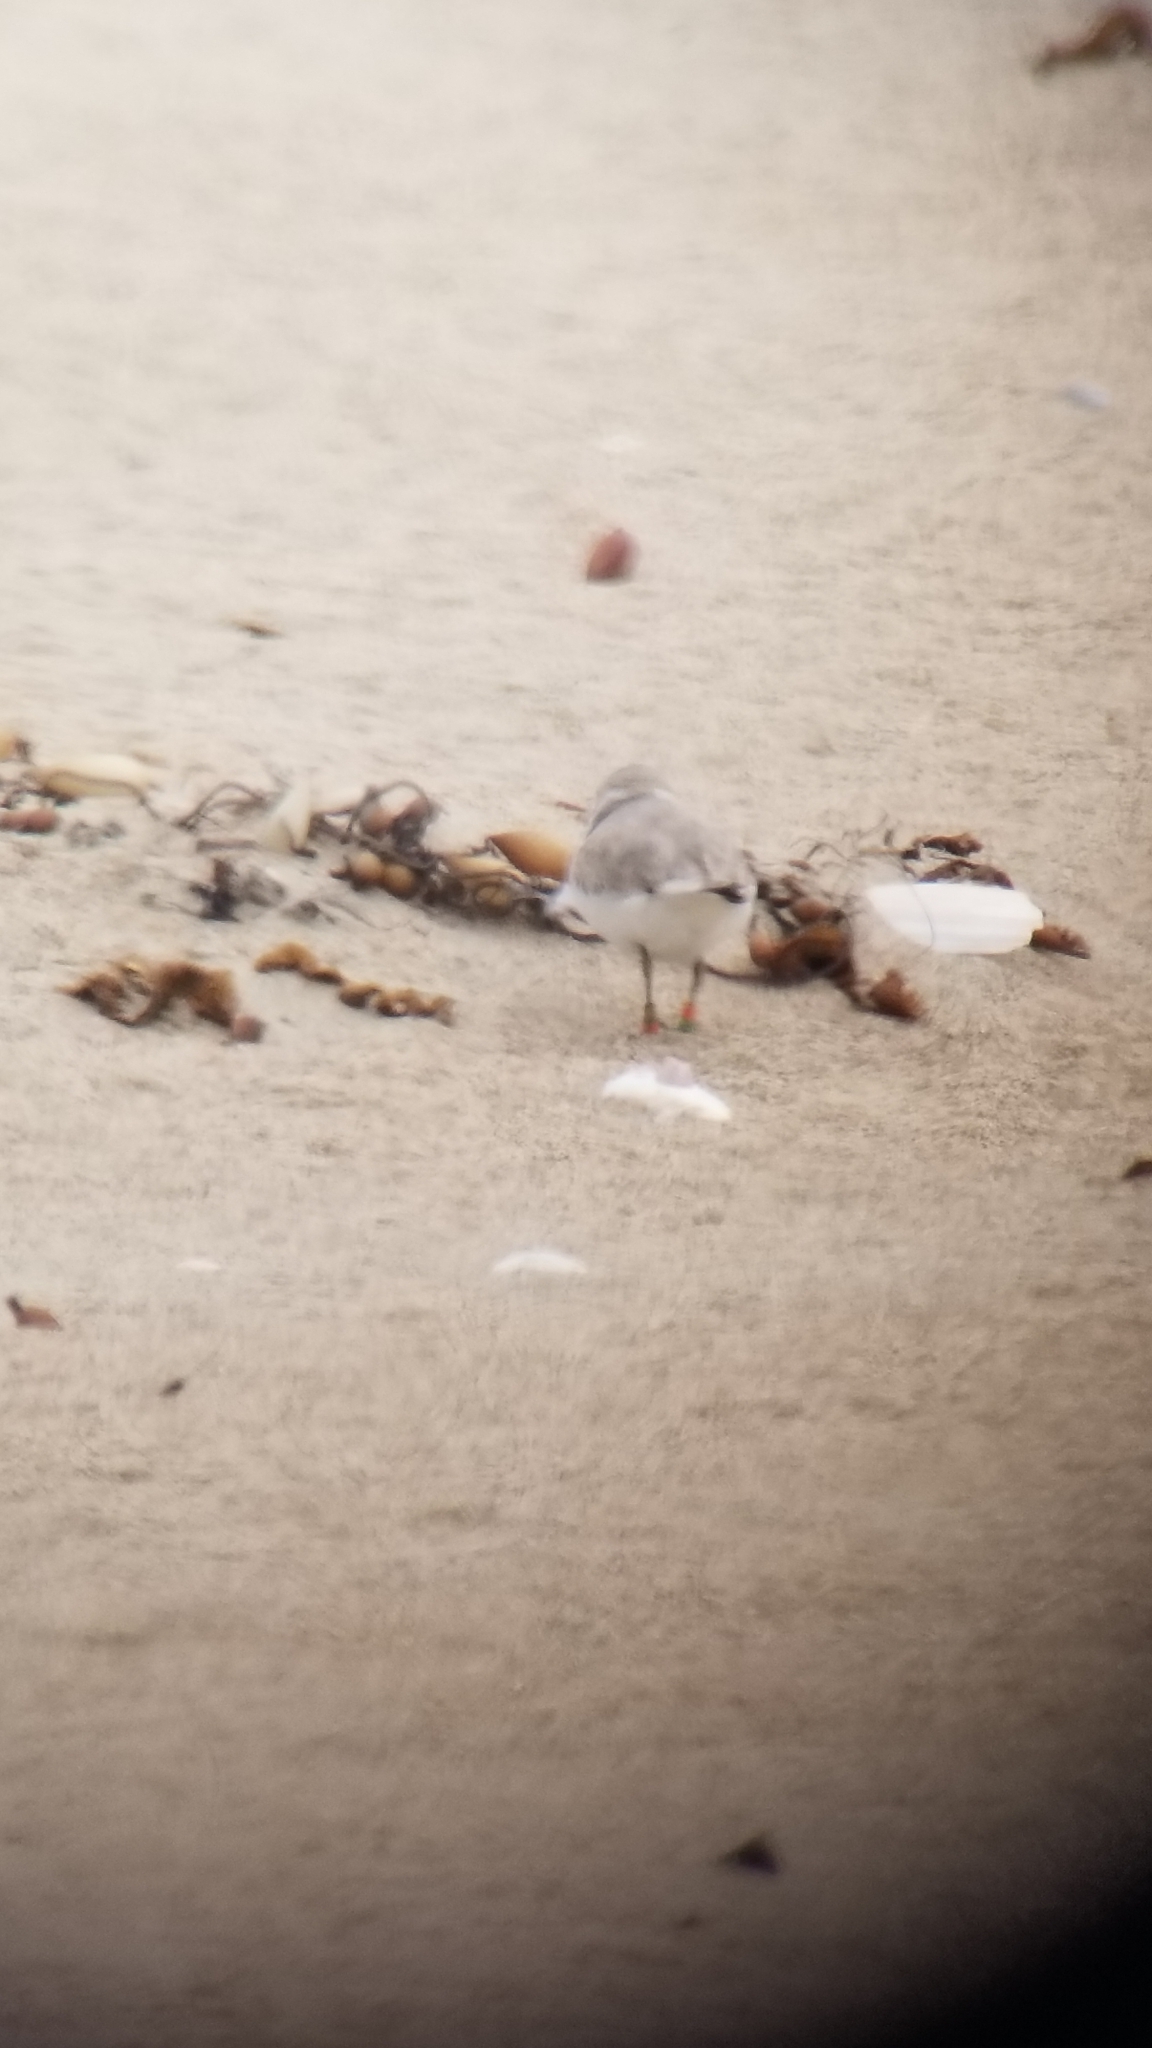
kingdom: Animalia
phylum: Chordata
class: Aves
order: Charadriiformes
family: Charadriidae
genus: Anarhynchus
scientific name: Anarhynchus
